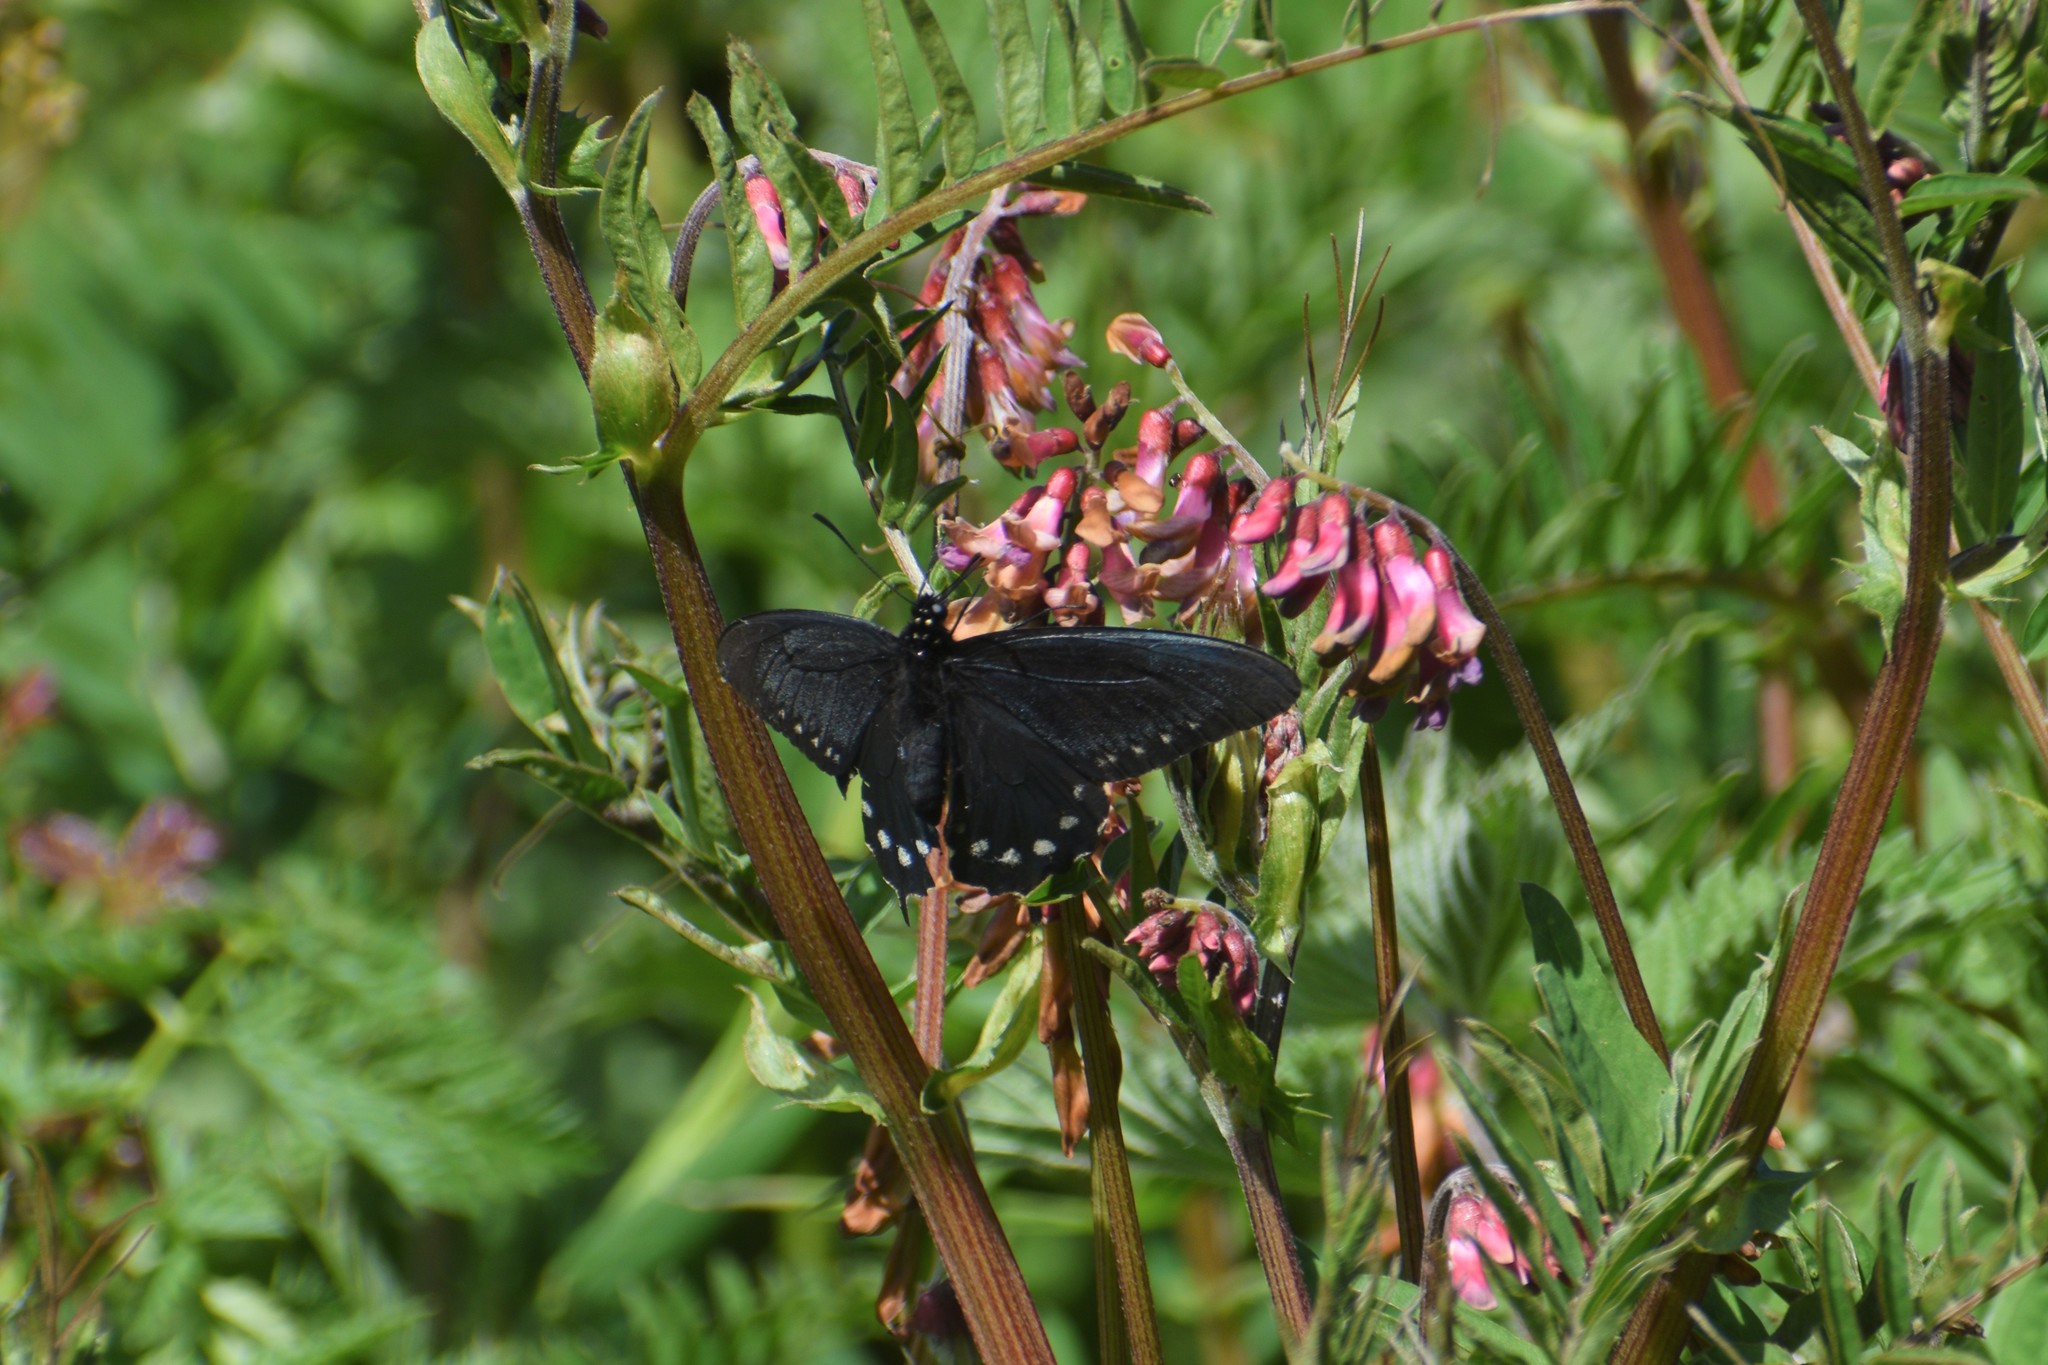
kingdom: Animalia
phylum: Arthropoda
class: Insecta
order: Lepidoptera
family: Papilionidae
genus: Battus
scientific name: Battus philenor
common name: Pipevine swallowtail
